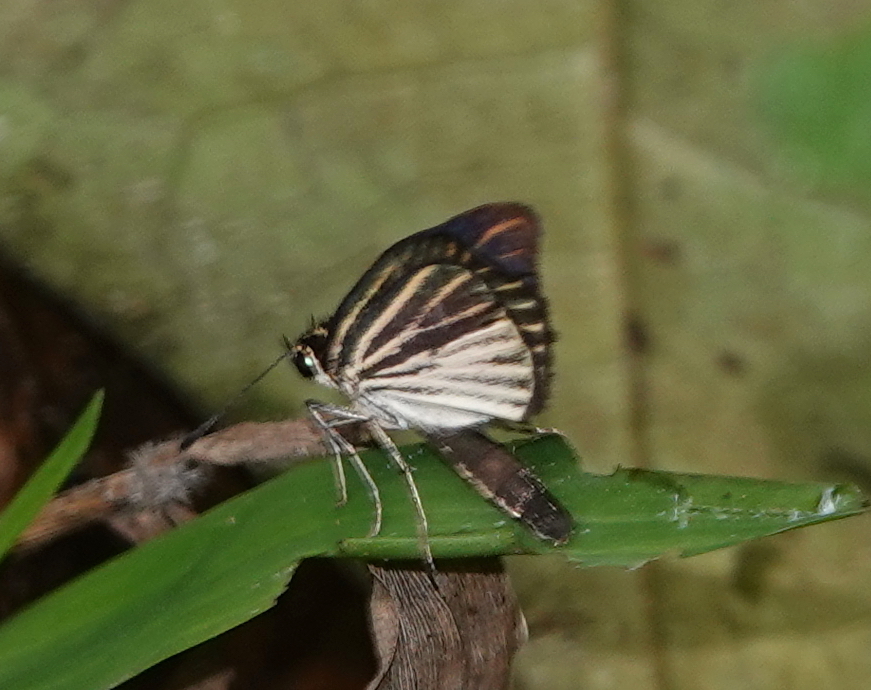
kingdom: Animalia
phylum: Arthropoda
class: Insecta
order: Lepidoptera
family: Hesperiidae
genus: Apaustus
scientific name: Apaustus gracilis
